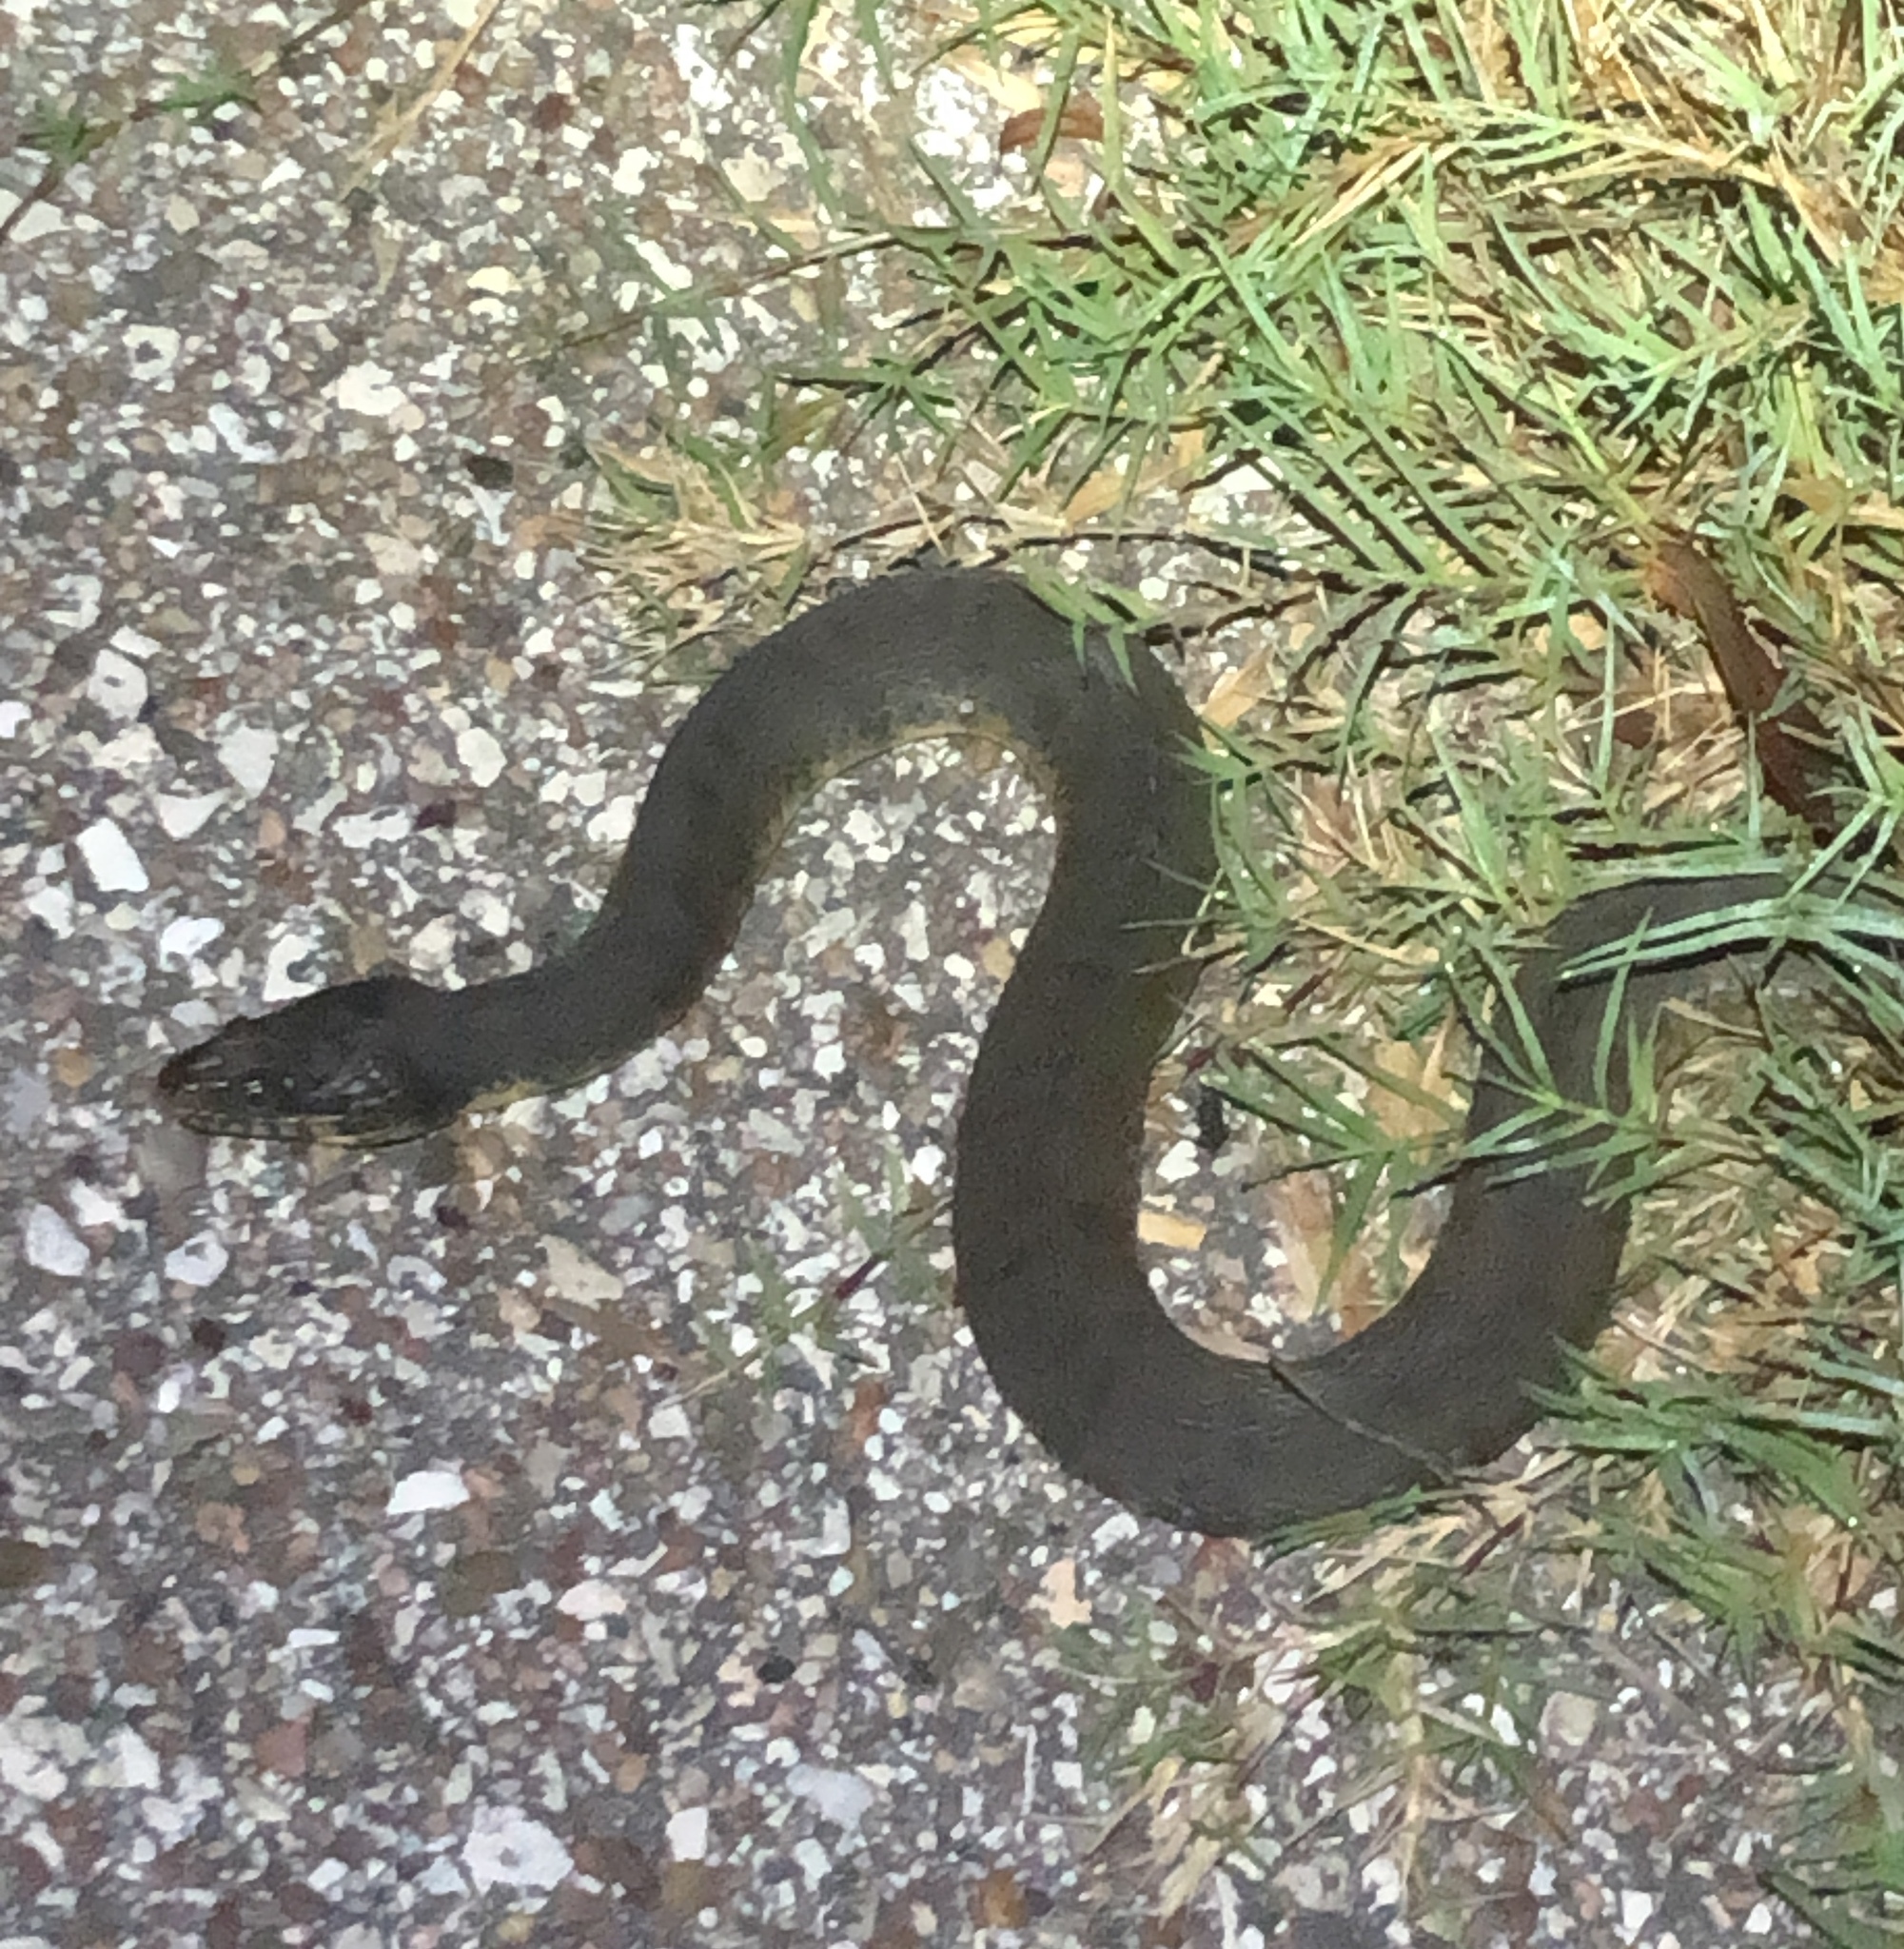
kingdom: Animalia
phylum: Chordata
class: Squamata
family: Colubridae
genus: Nerodia
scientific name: Nerodia erythrogaster
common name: Plainbelly water snake
